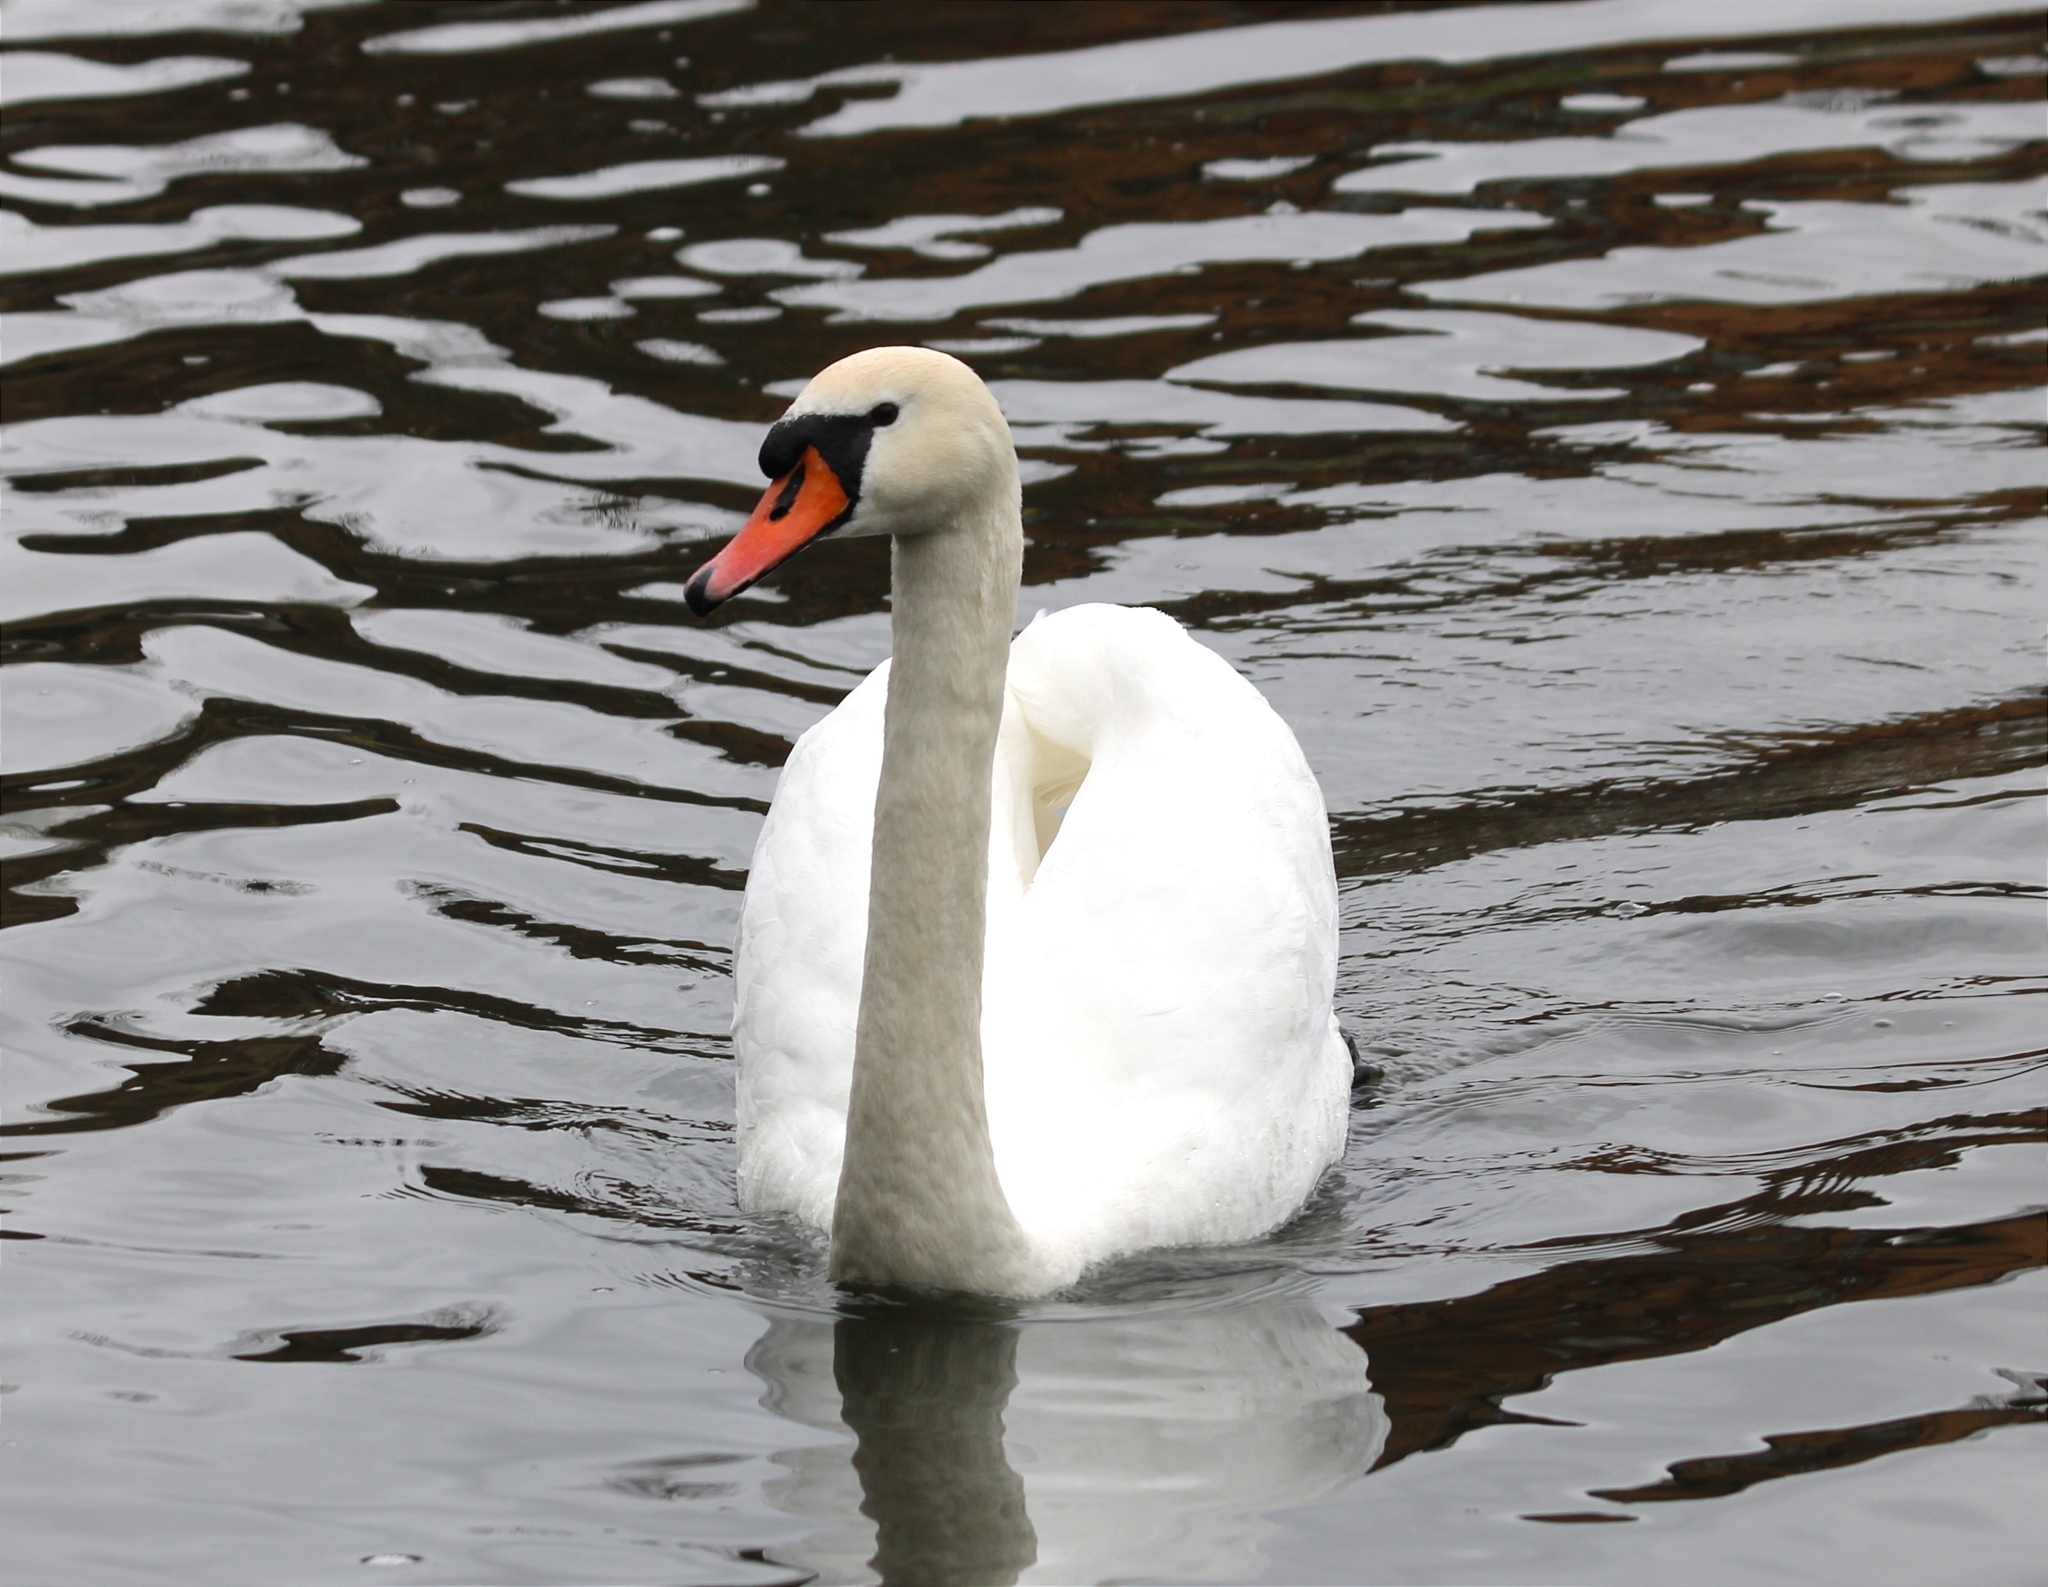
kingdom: Animalia
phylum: Chordata
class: Aves
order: Anseriformes
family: Anatidae
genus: Cygnus
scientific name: Cygnus olor
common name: Mute swan
